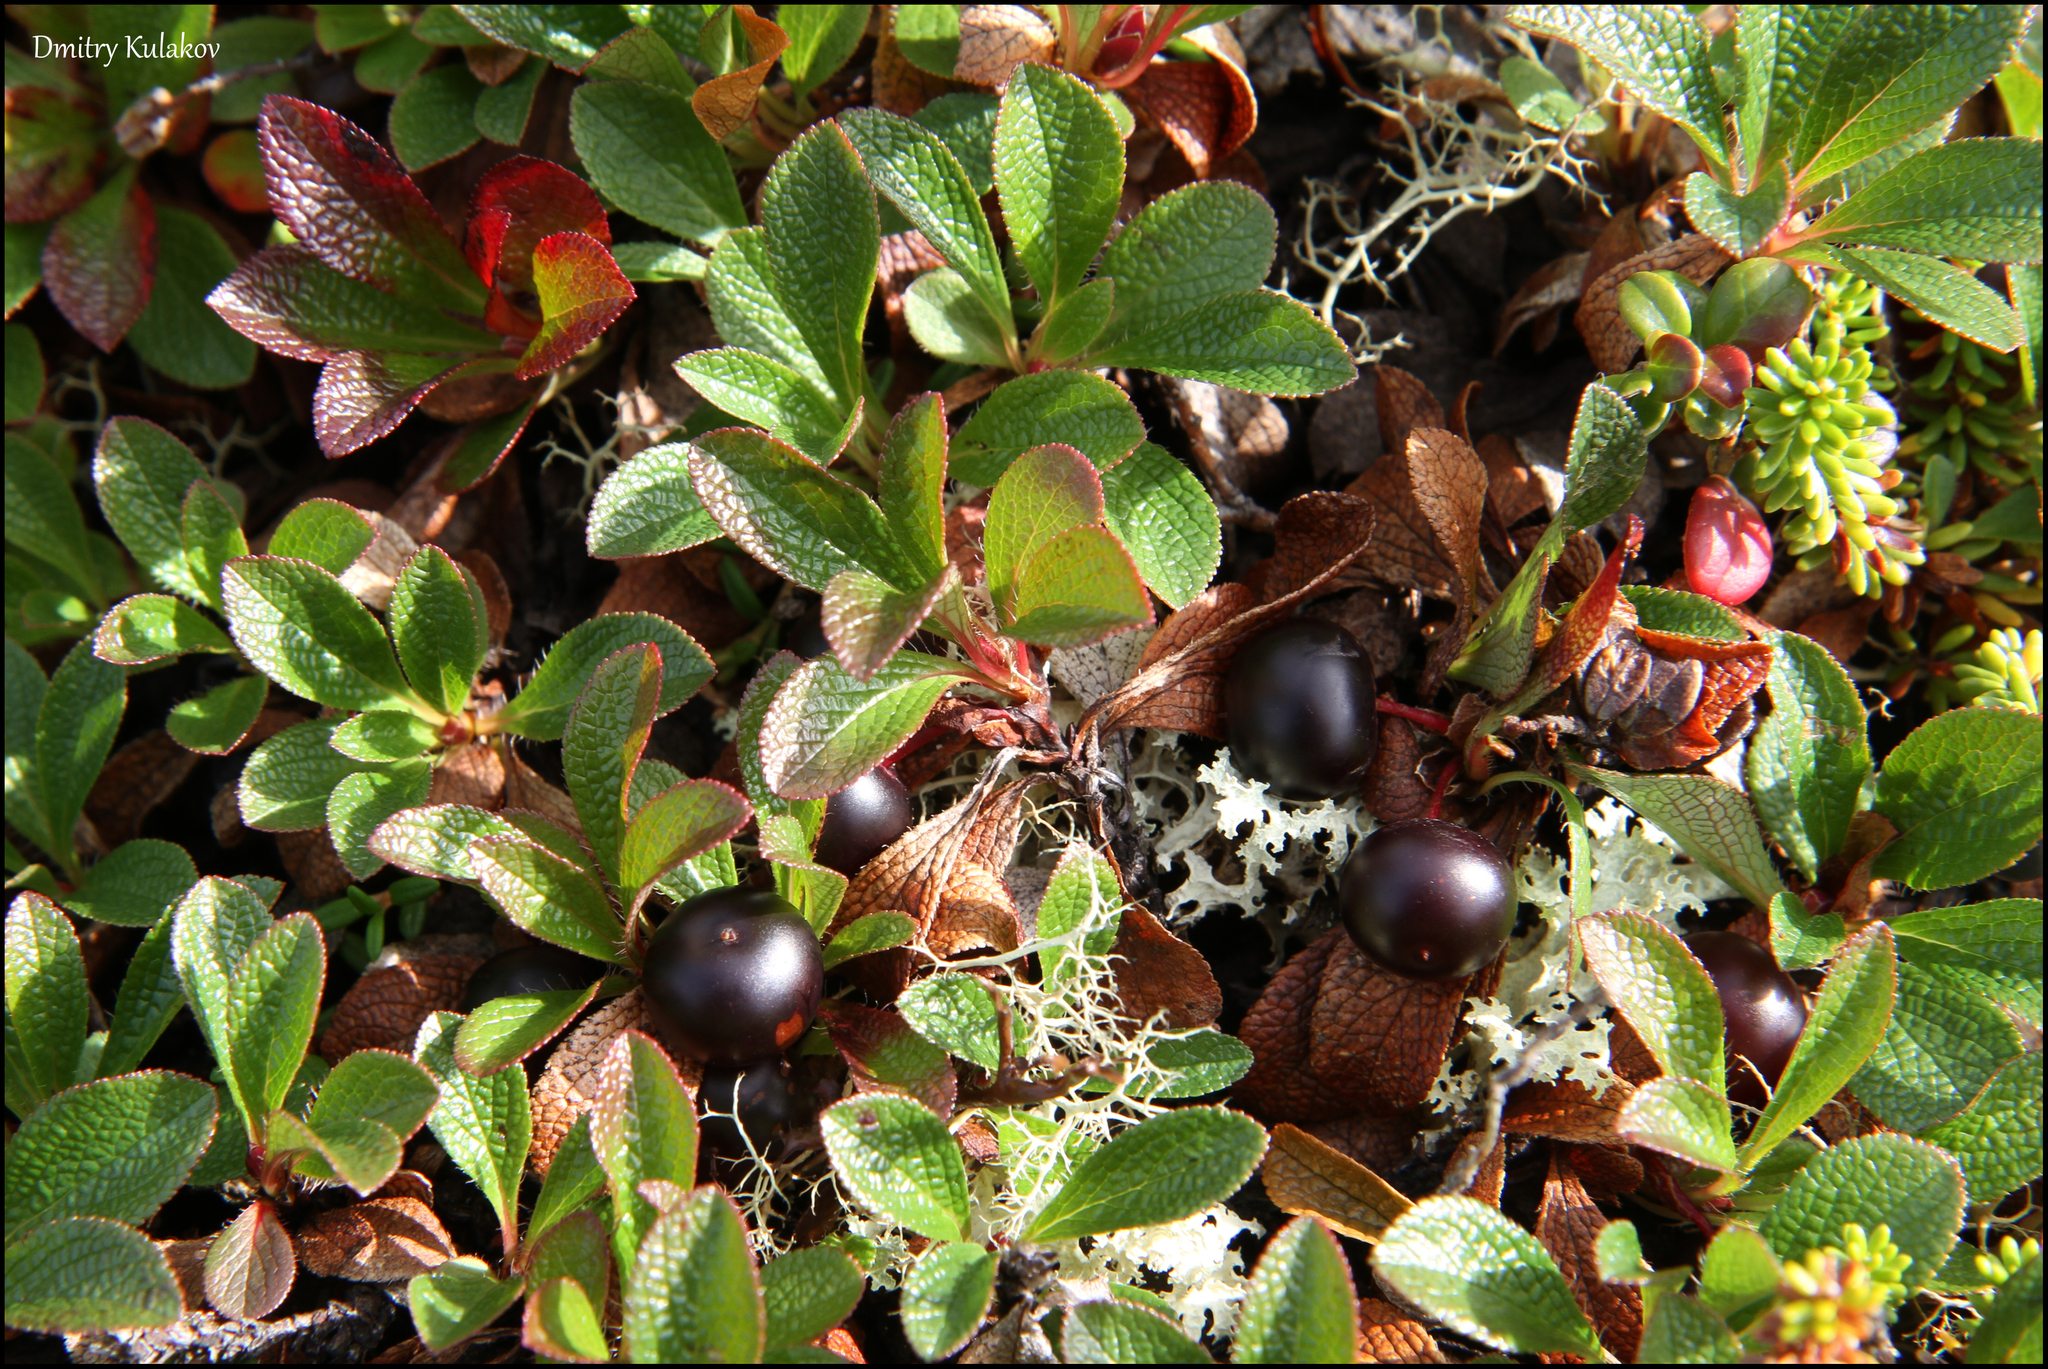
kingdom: Plantae
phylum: Tracheophyta
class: Magnoliopsida
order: Ericales
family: Ericaceae
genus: Arctostaphylos
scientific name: Arctostaphylos alpinus
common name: Alpine bearberry
